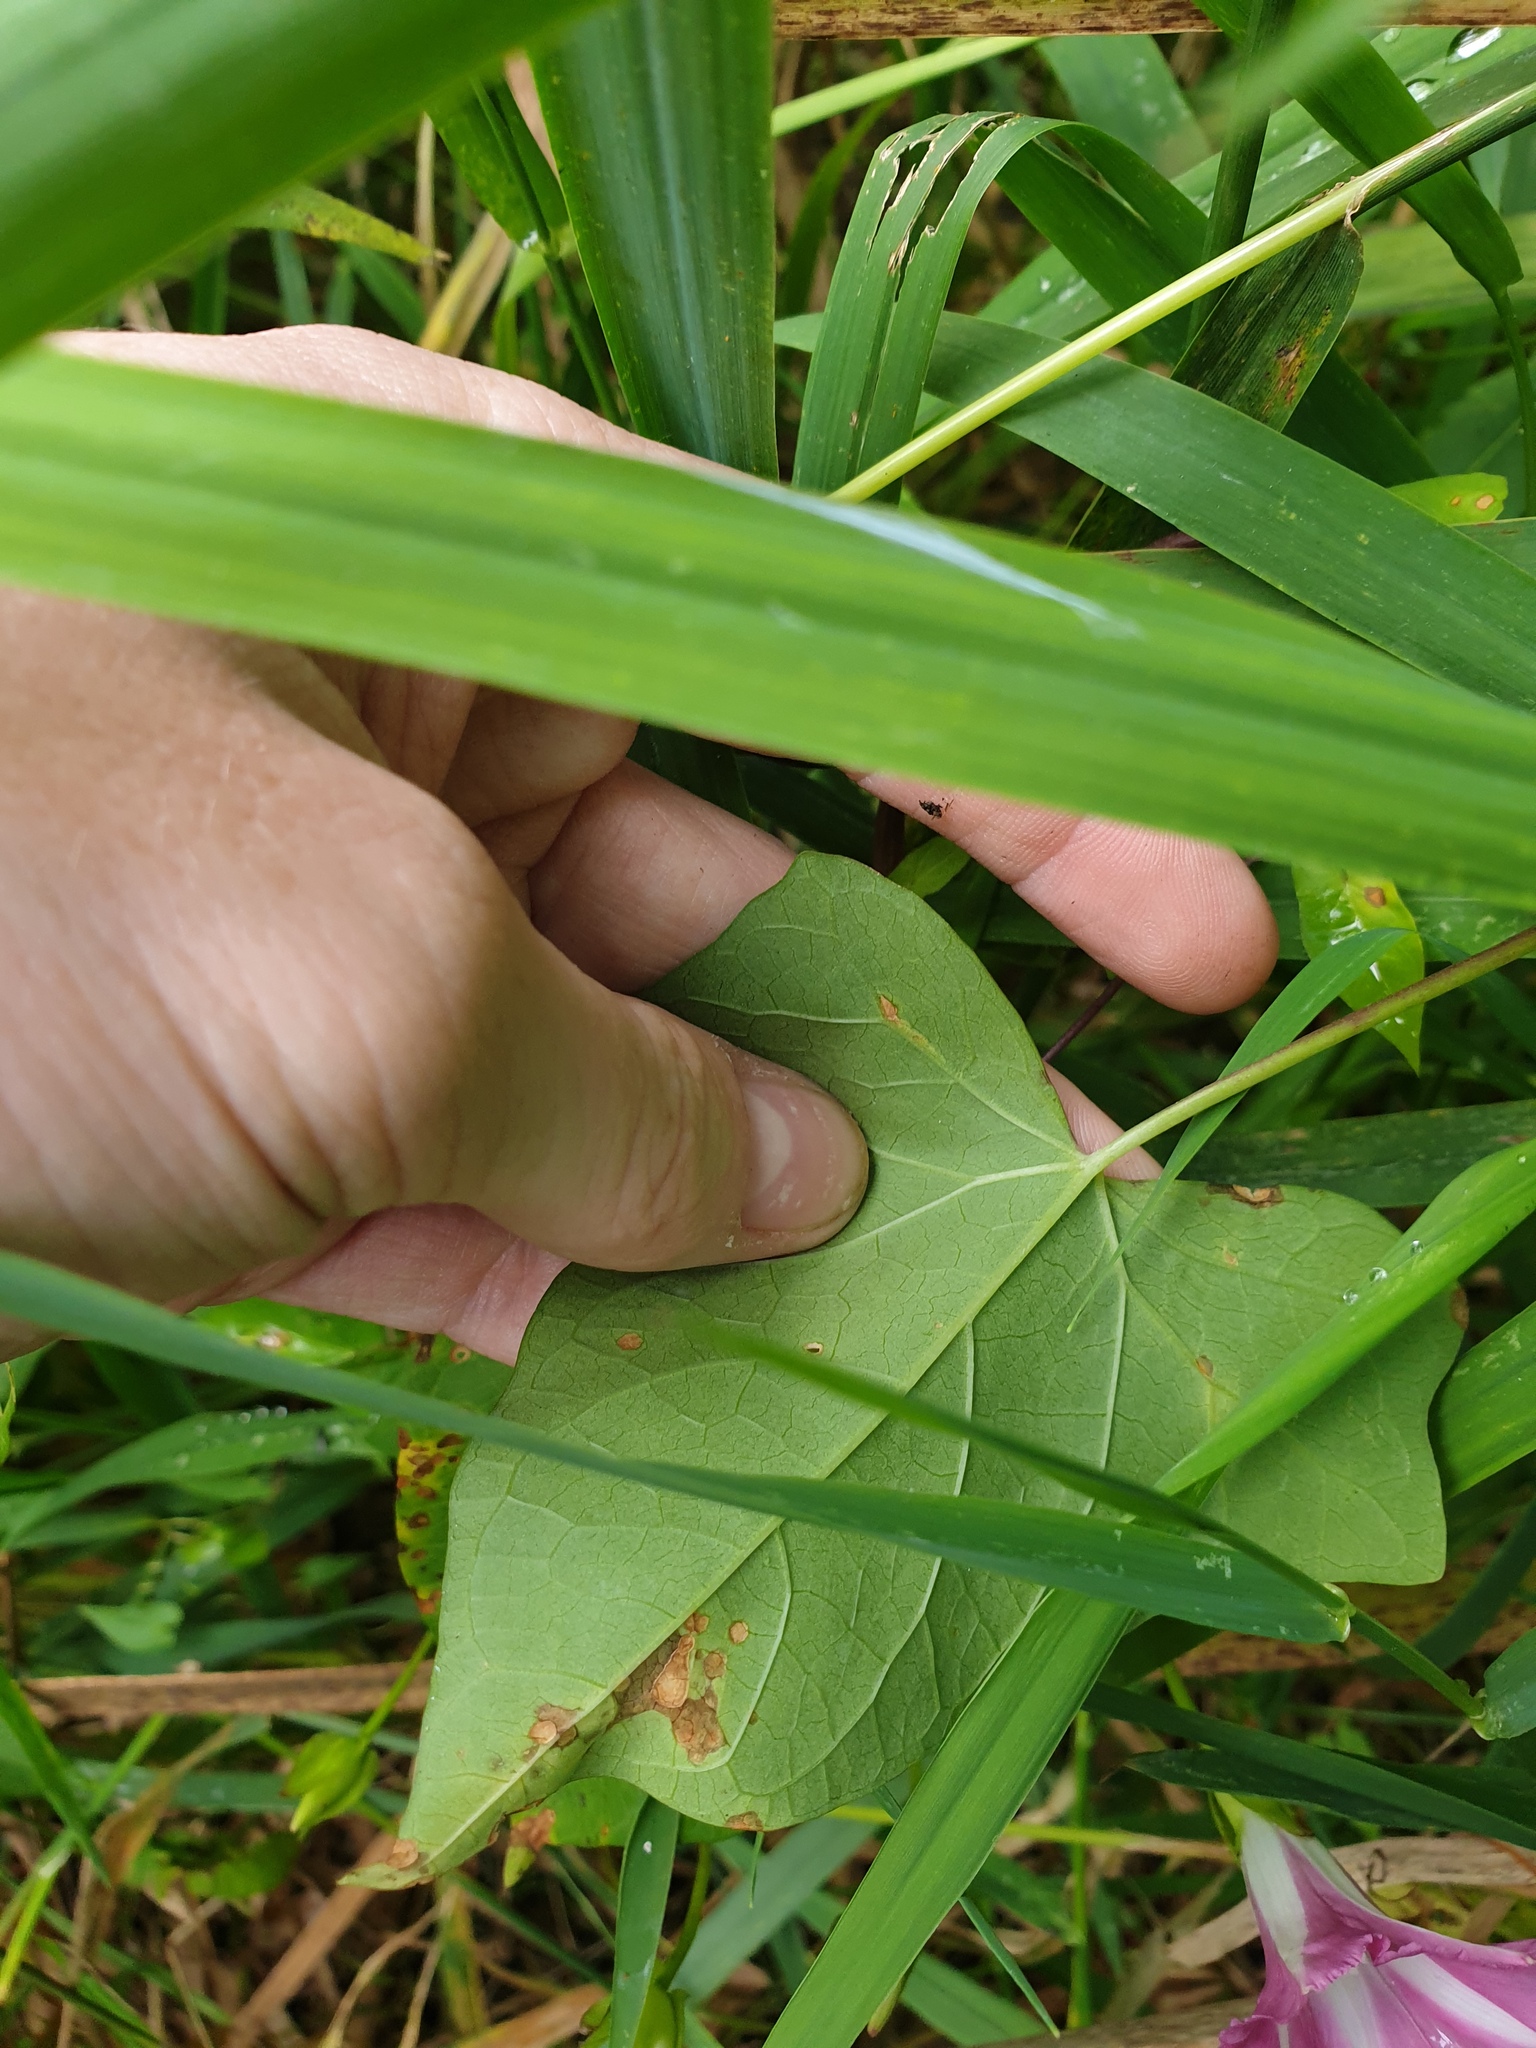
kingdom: Plantae
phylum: Tracheophyta
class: Magnoliopsida
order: Solanales
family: Convolvulaceae
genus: Calystegia
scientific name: Calystegia sepium
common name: Hedge bindweed
